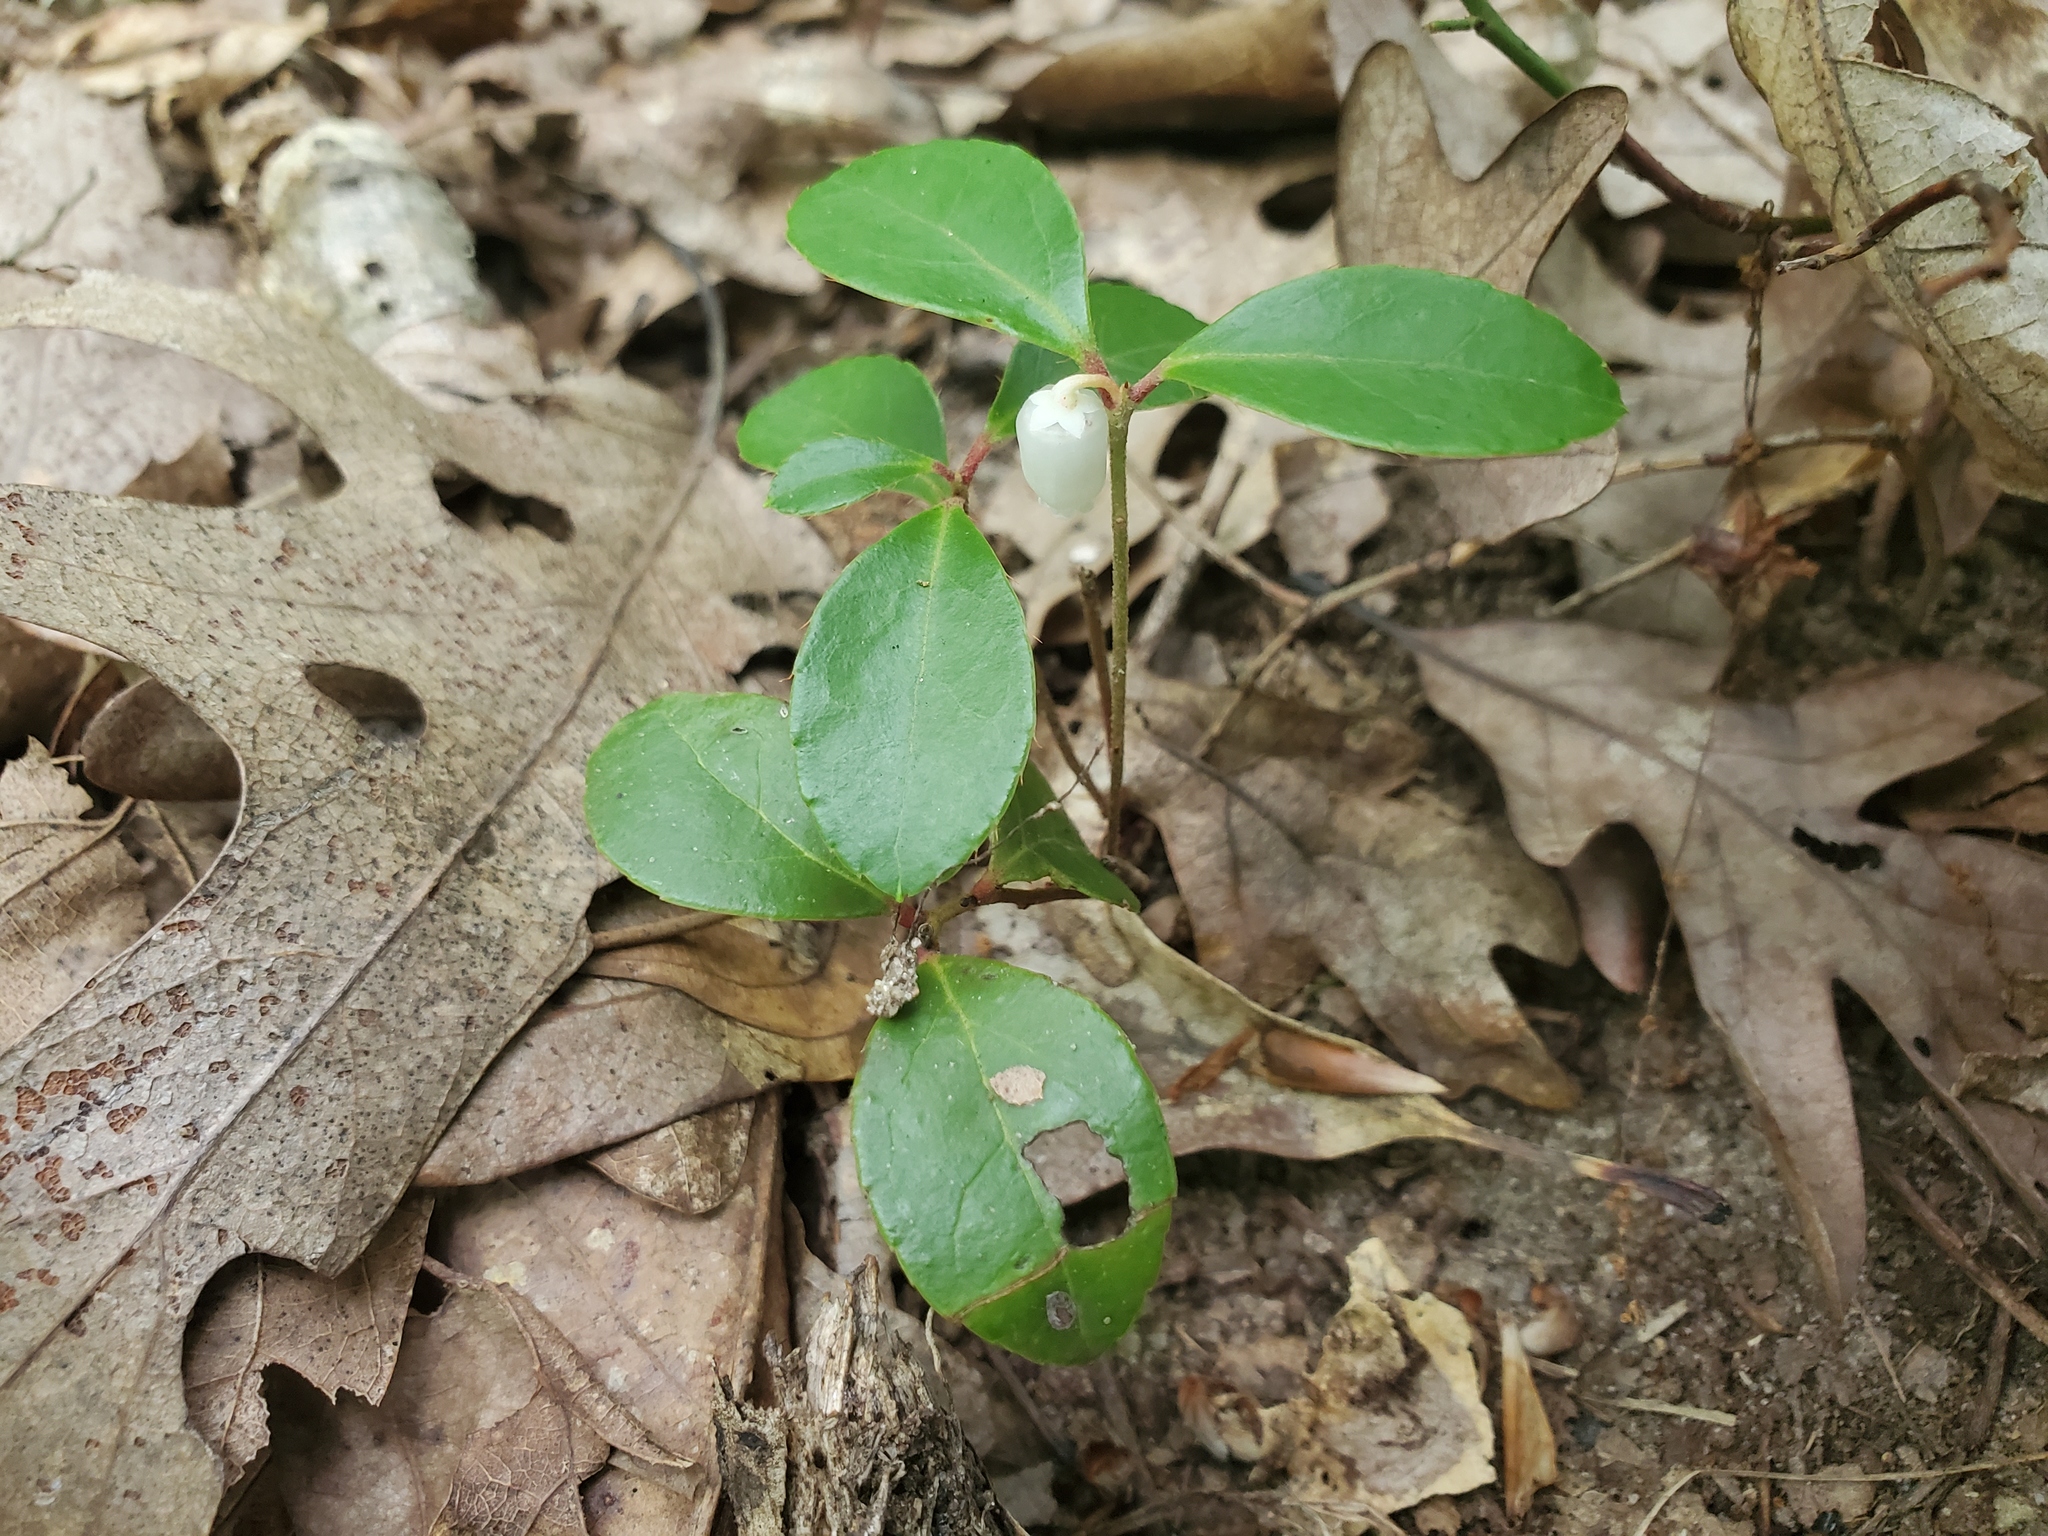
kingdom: Plantae
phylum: Tracheophyta
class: Magnoliopsida
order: Ericales
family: Ericaceae
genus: Gaultheria
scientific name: Gaultheria procumbens
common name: Checkerberry
